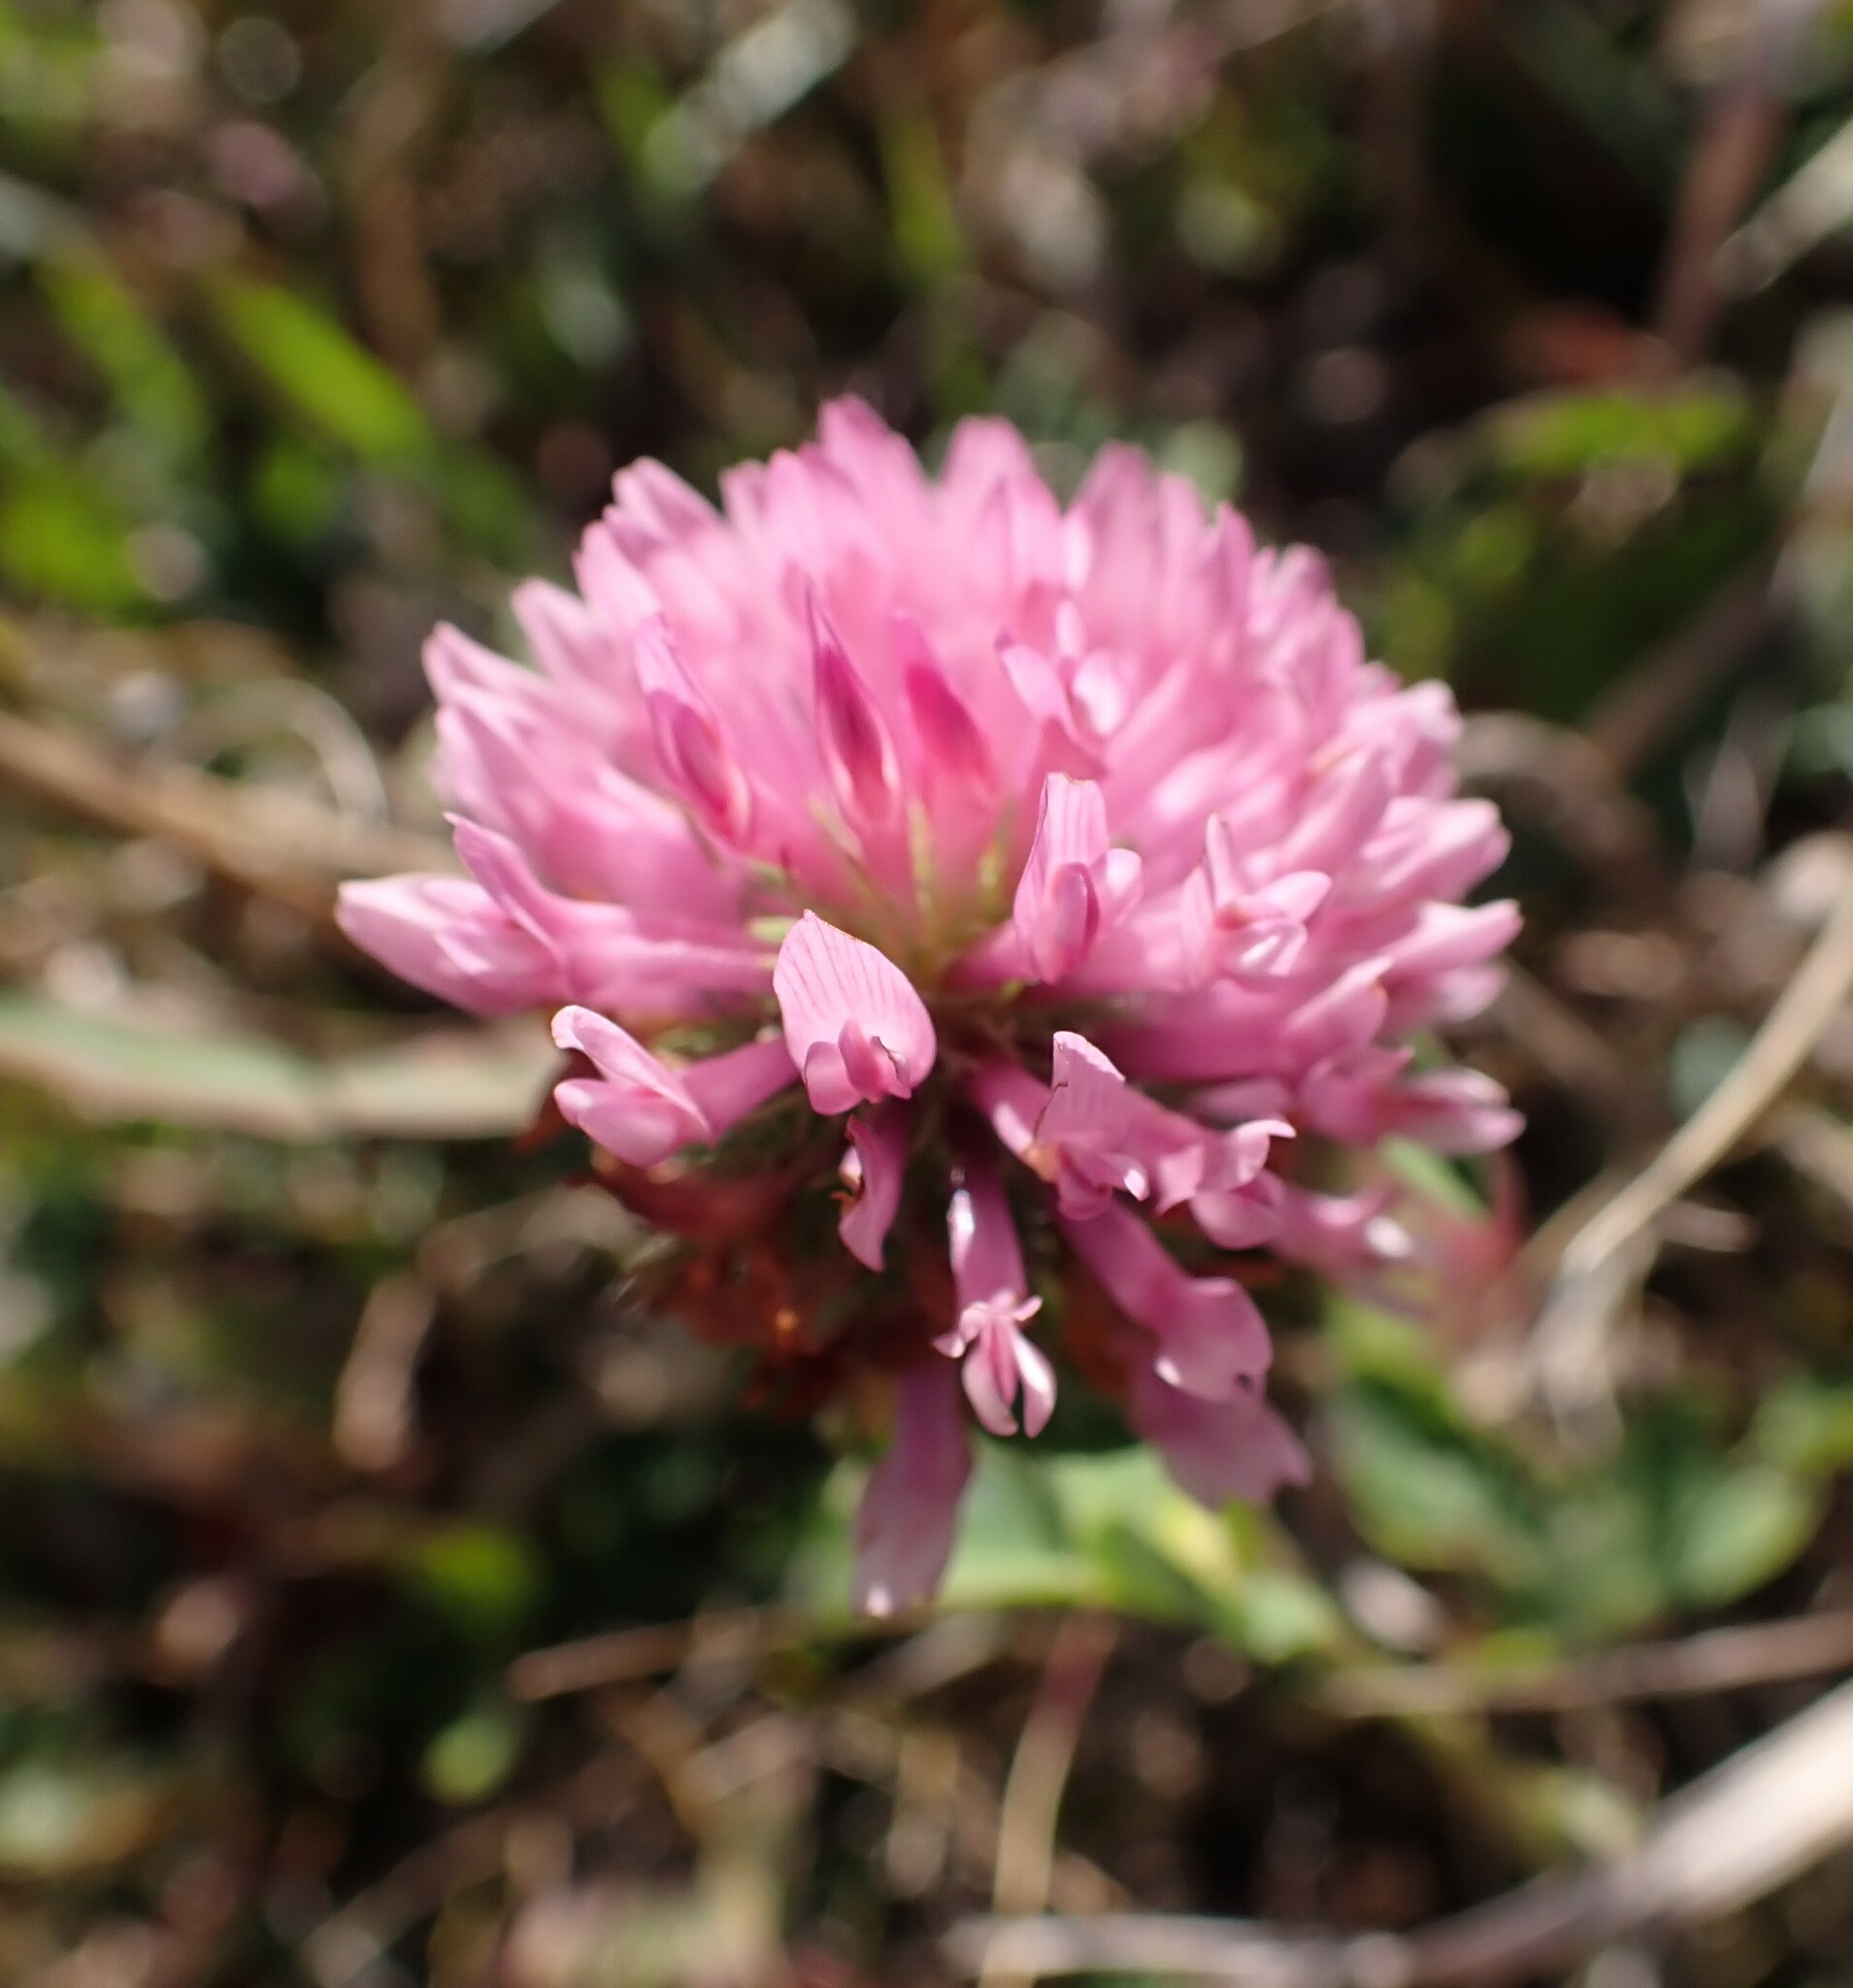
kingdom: Plantae
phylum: Tracheophyta
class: Magnoliopsida
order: Fabales
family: Fabaceae
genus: Trifolium
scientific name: Trifolium pratense
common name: Red clover
